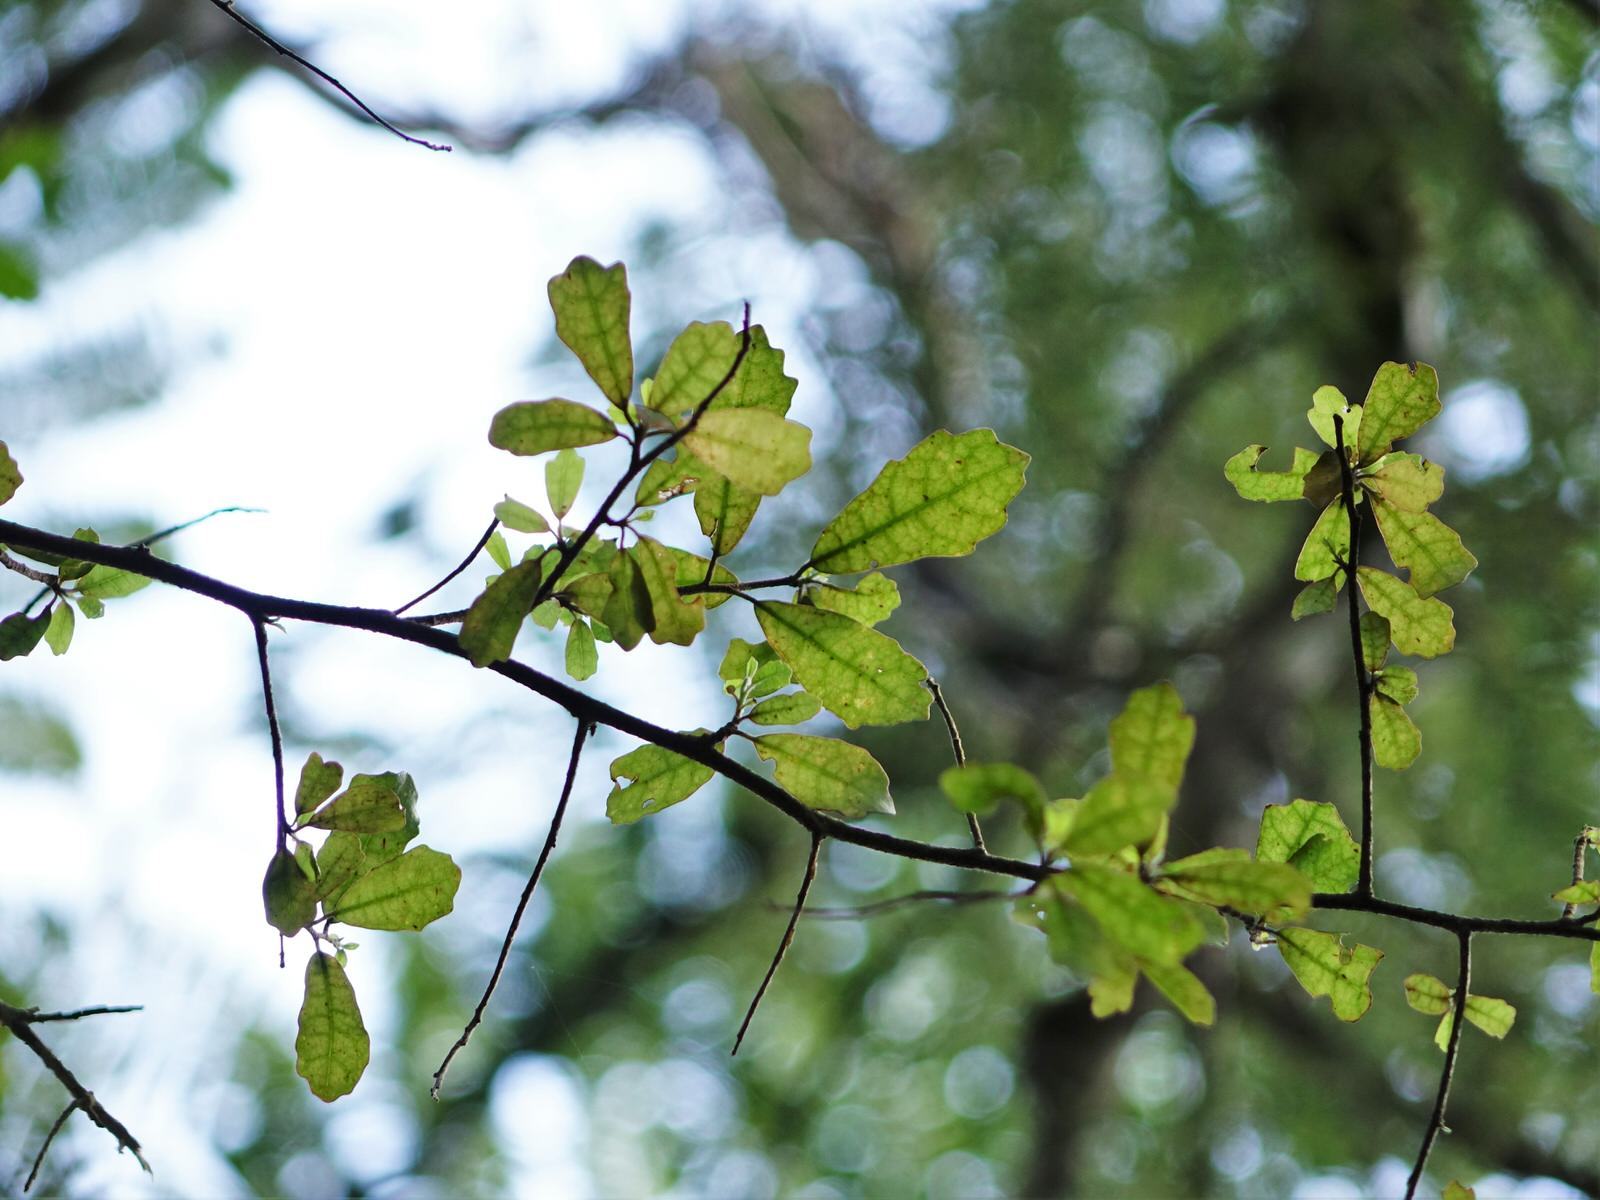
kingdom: Plantae
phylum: Tracheophyta
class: Magnoliopsida
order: Apiales
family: Pennantiaceae
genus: Pennantia
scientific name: Pennantia corymbosa
